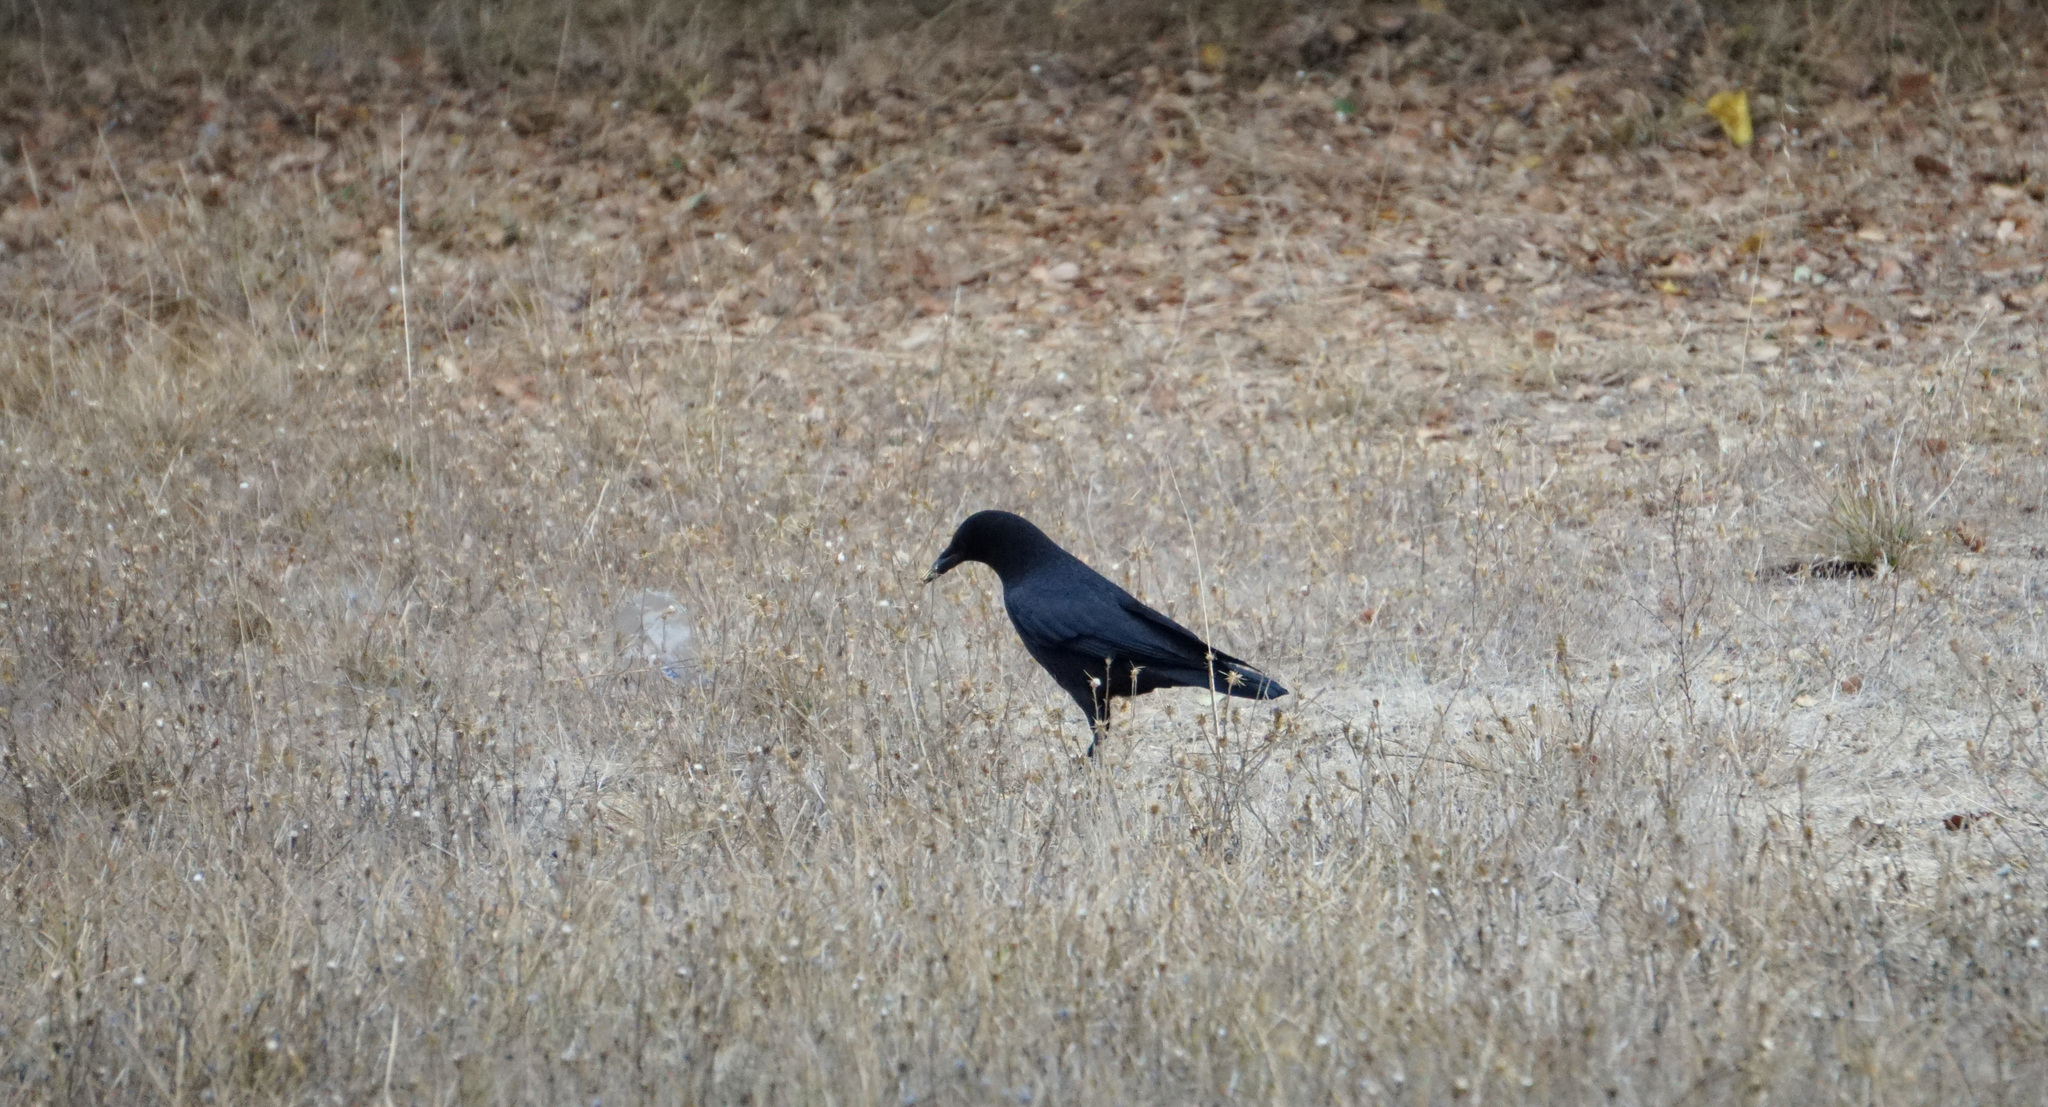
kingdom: Animalia
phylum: Chordata
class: Aves
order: Passeriformes
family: Corvidae
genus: Corvus
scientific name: Corvus brachyrhynchos
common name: American crow
